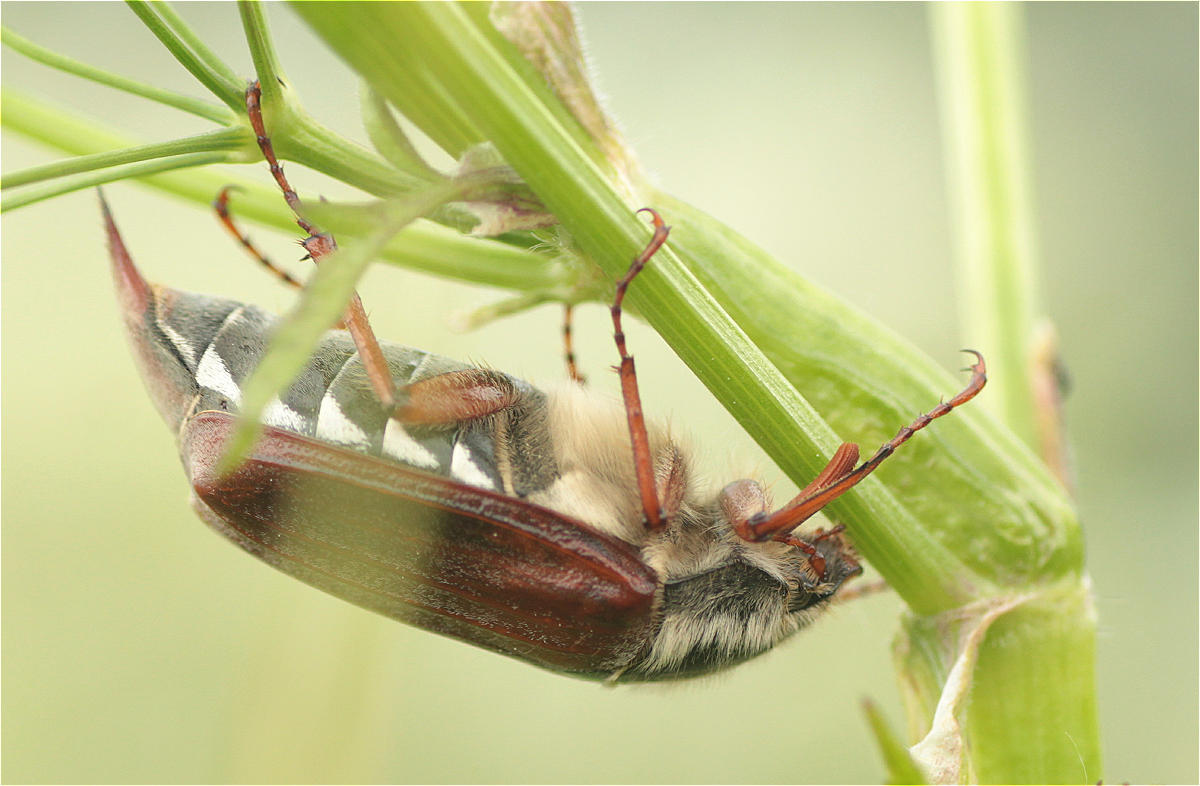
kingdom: Animalia
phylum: Arthropoda
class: Insecta
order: Coleoptera
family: Scarabaeidae
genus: Melolontha
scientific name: Melolontha melolontha
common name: Cockchafer maybeetle
